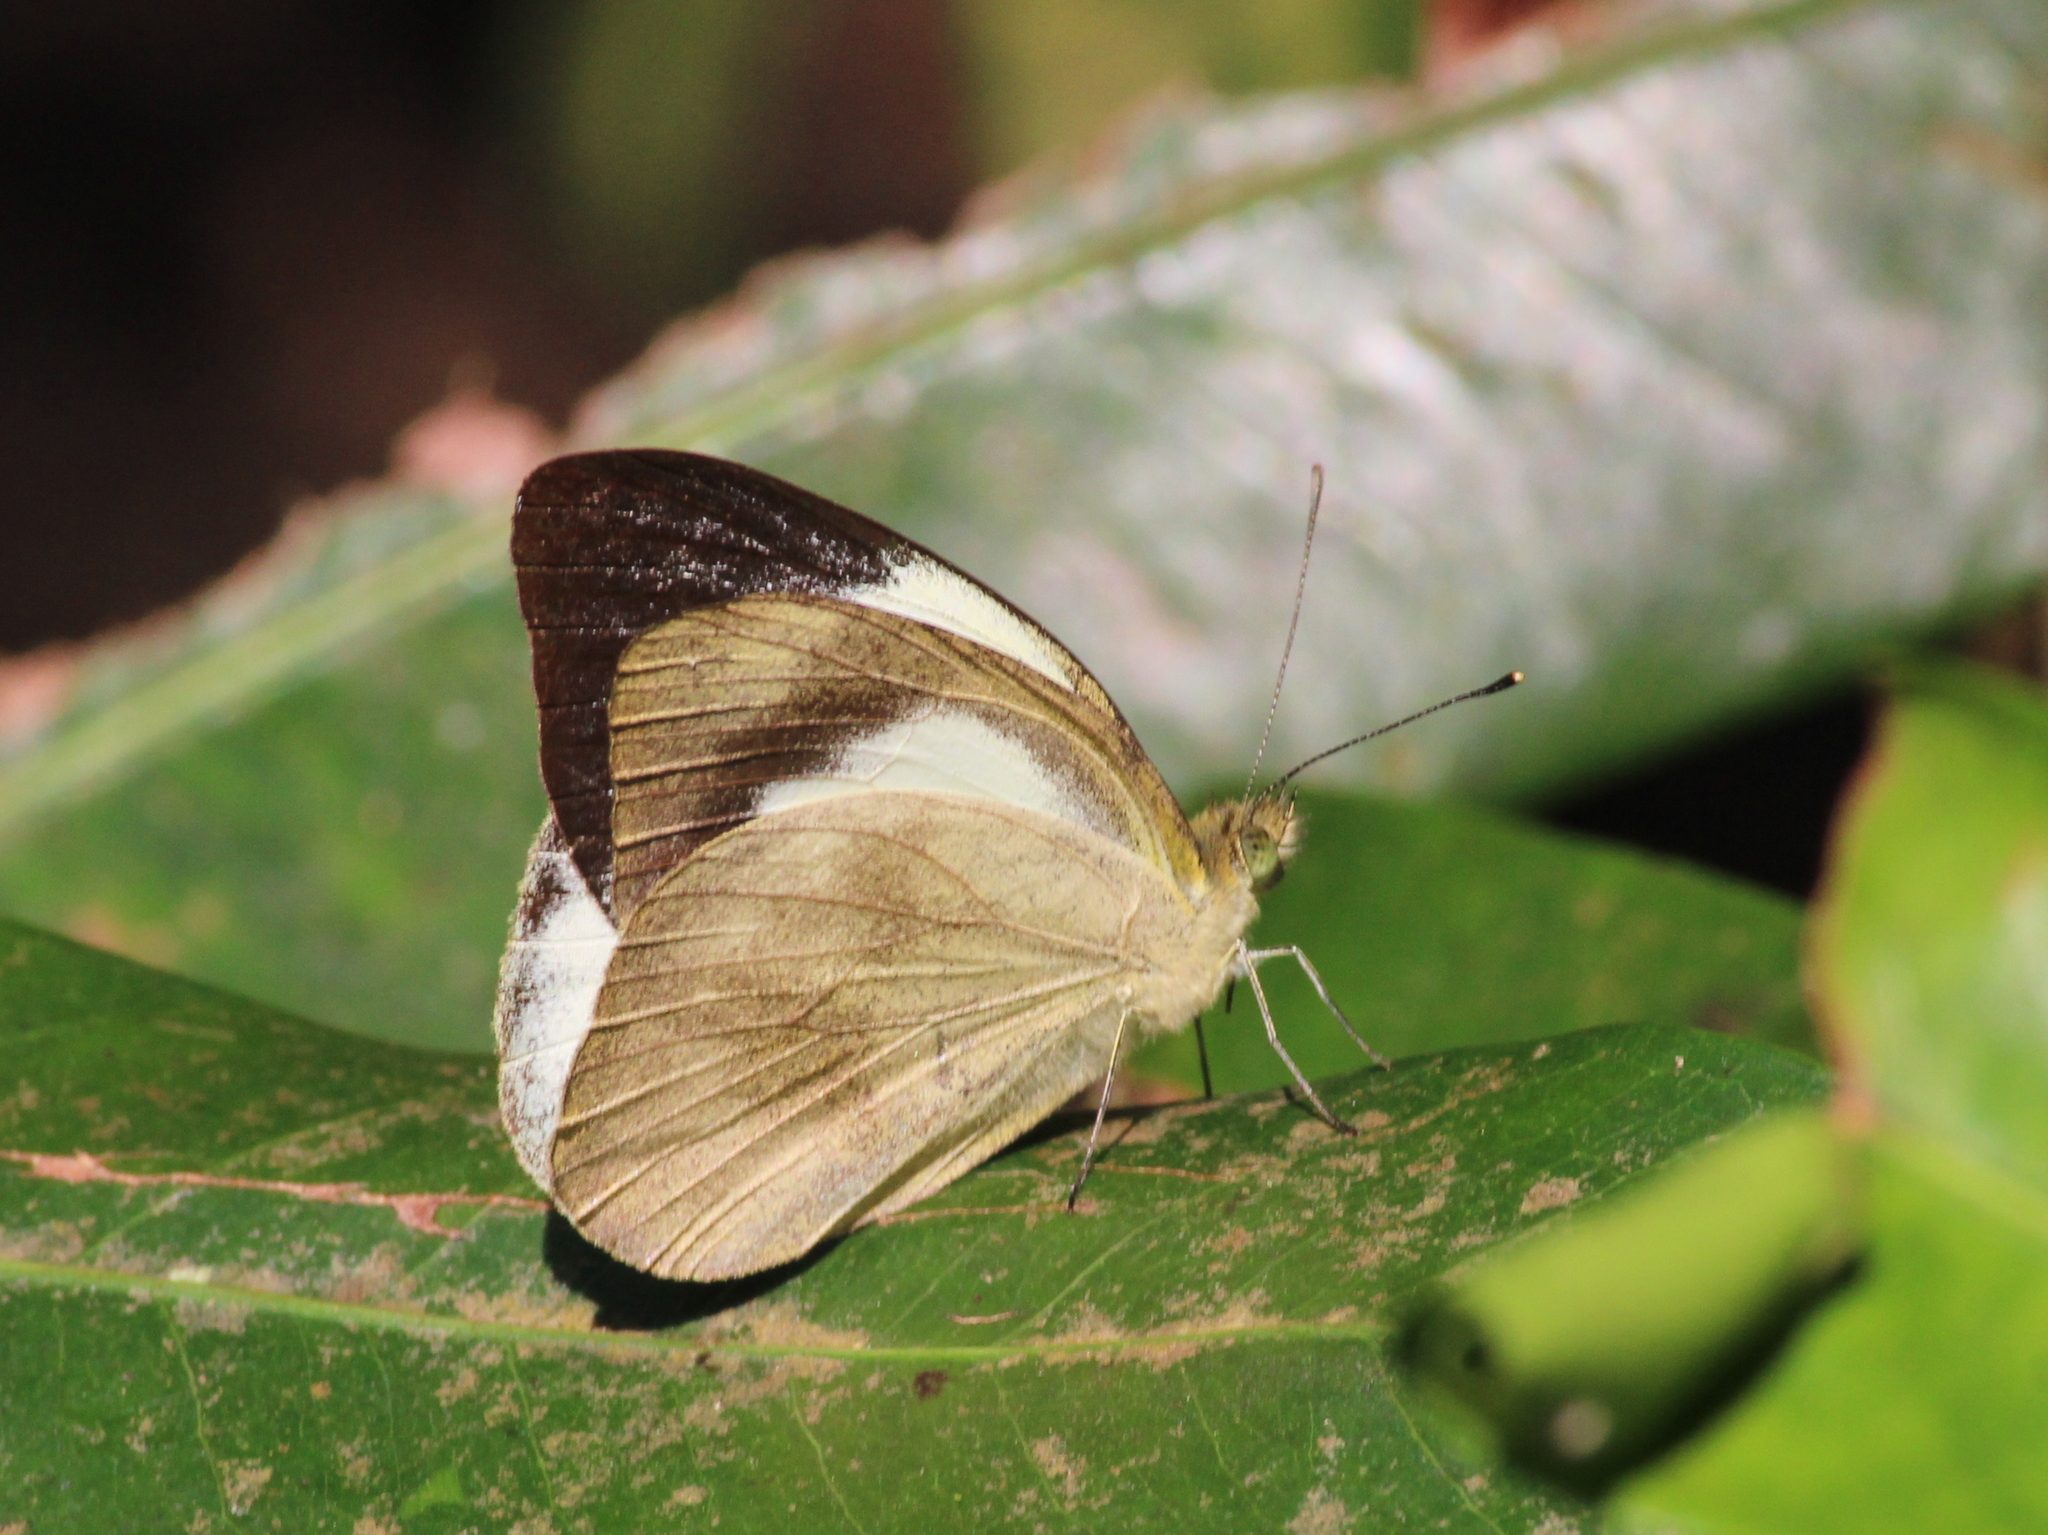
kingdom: Animalia
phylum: Arthropoda
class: Insecta
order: Lepidoptera
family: Pieridae
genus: Appias
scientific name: Appias indra
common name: Plain puffin
